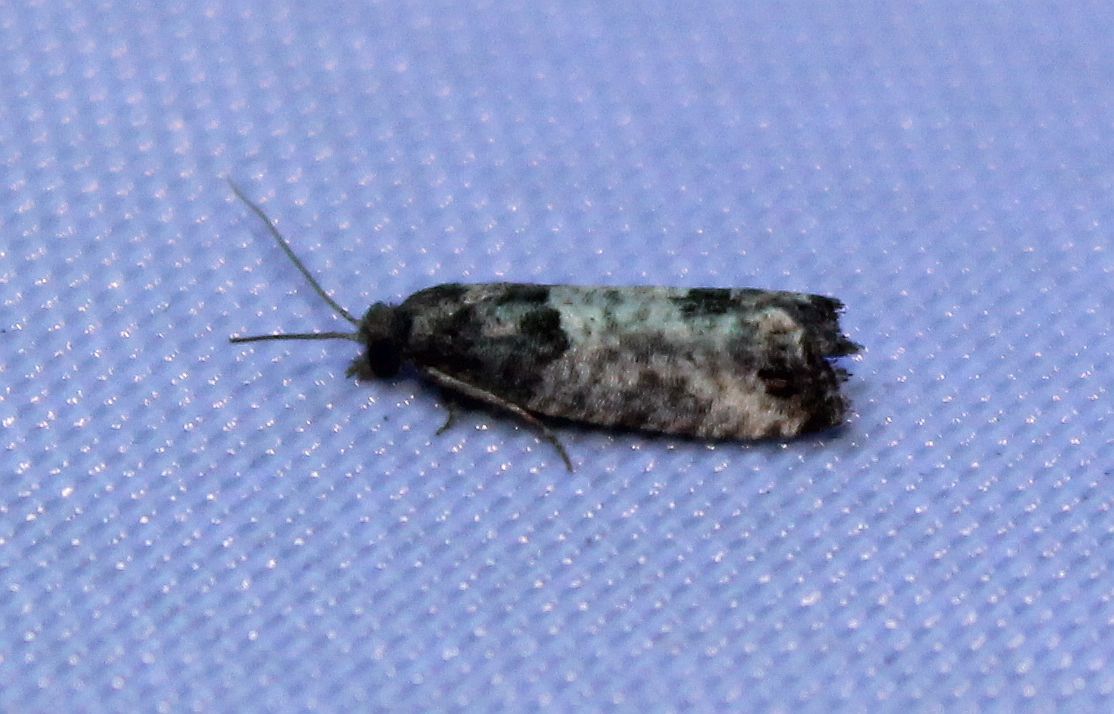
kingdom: Animalia
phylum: Arthropoda
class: Insecta
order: Lepidoptera
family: Tortricidae
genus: Spilonota
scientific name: Spilonota ocellana
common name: Bud moth
